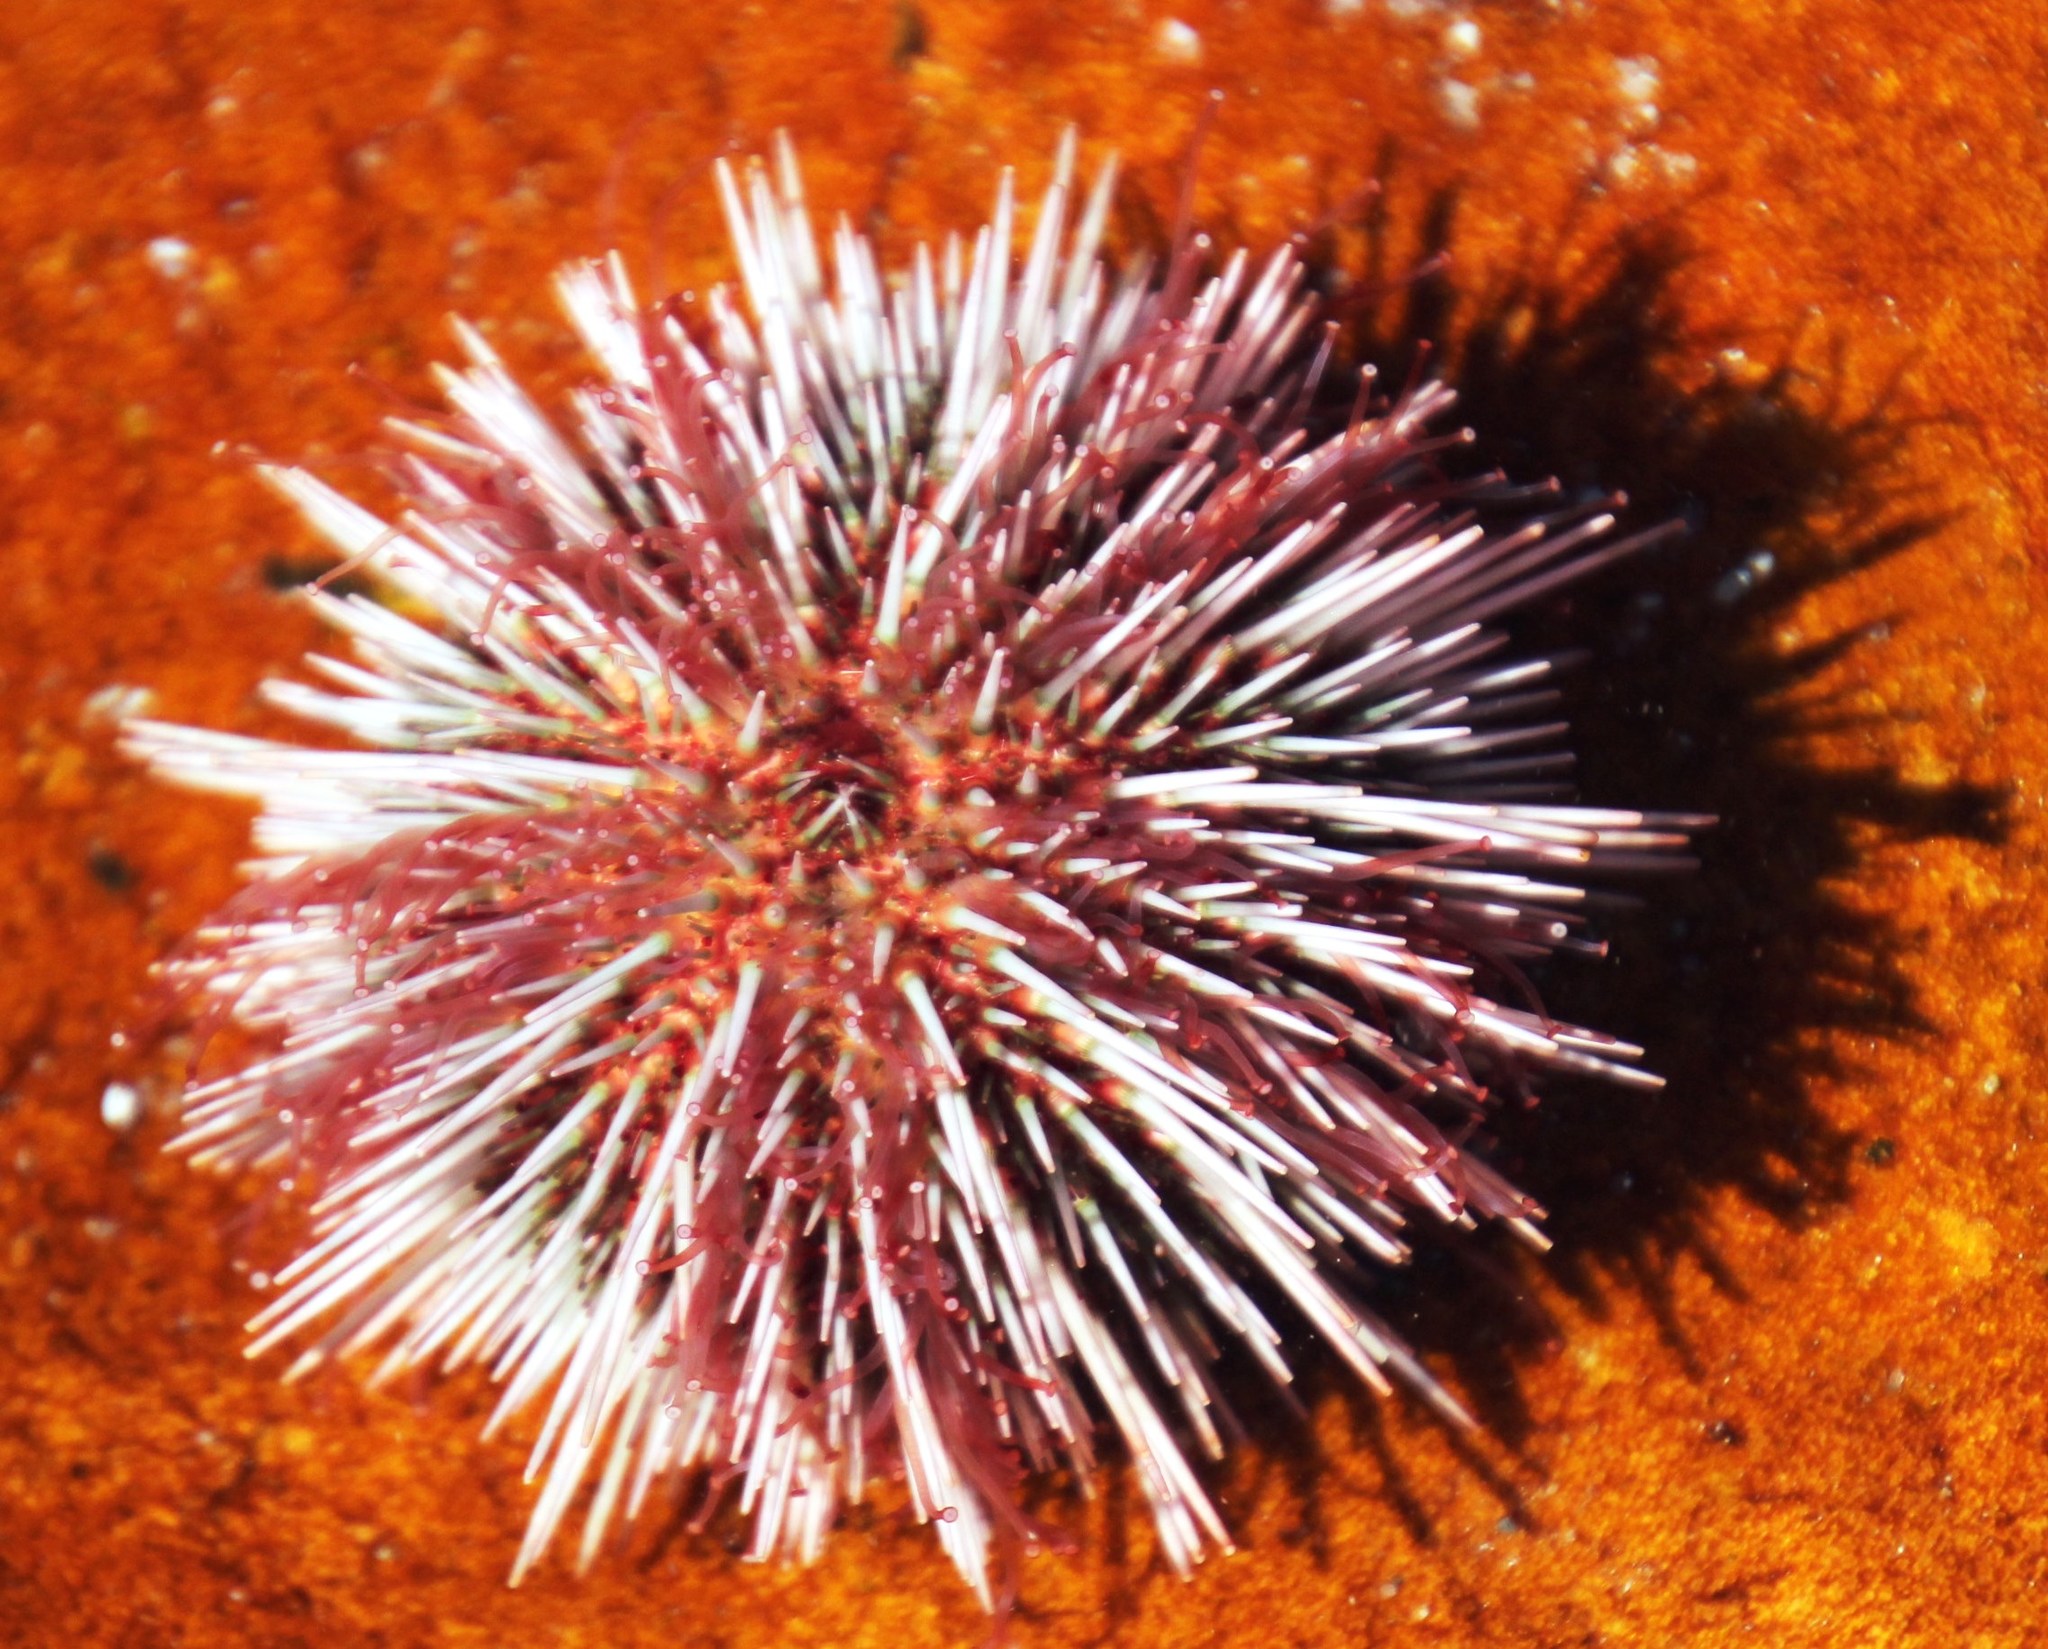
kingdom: Animalia
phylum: Echinodermata
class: Echinoidea
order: Camarodonta
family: Parechinidae
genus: Parechinus
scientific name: Parechinus angulosus
